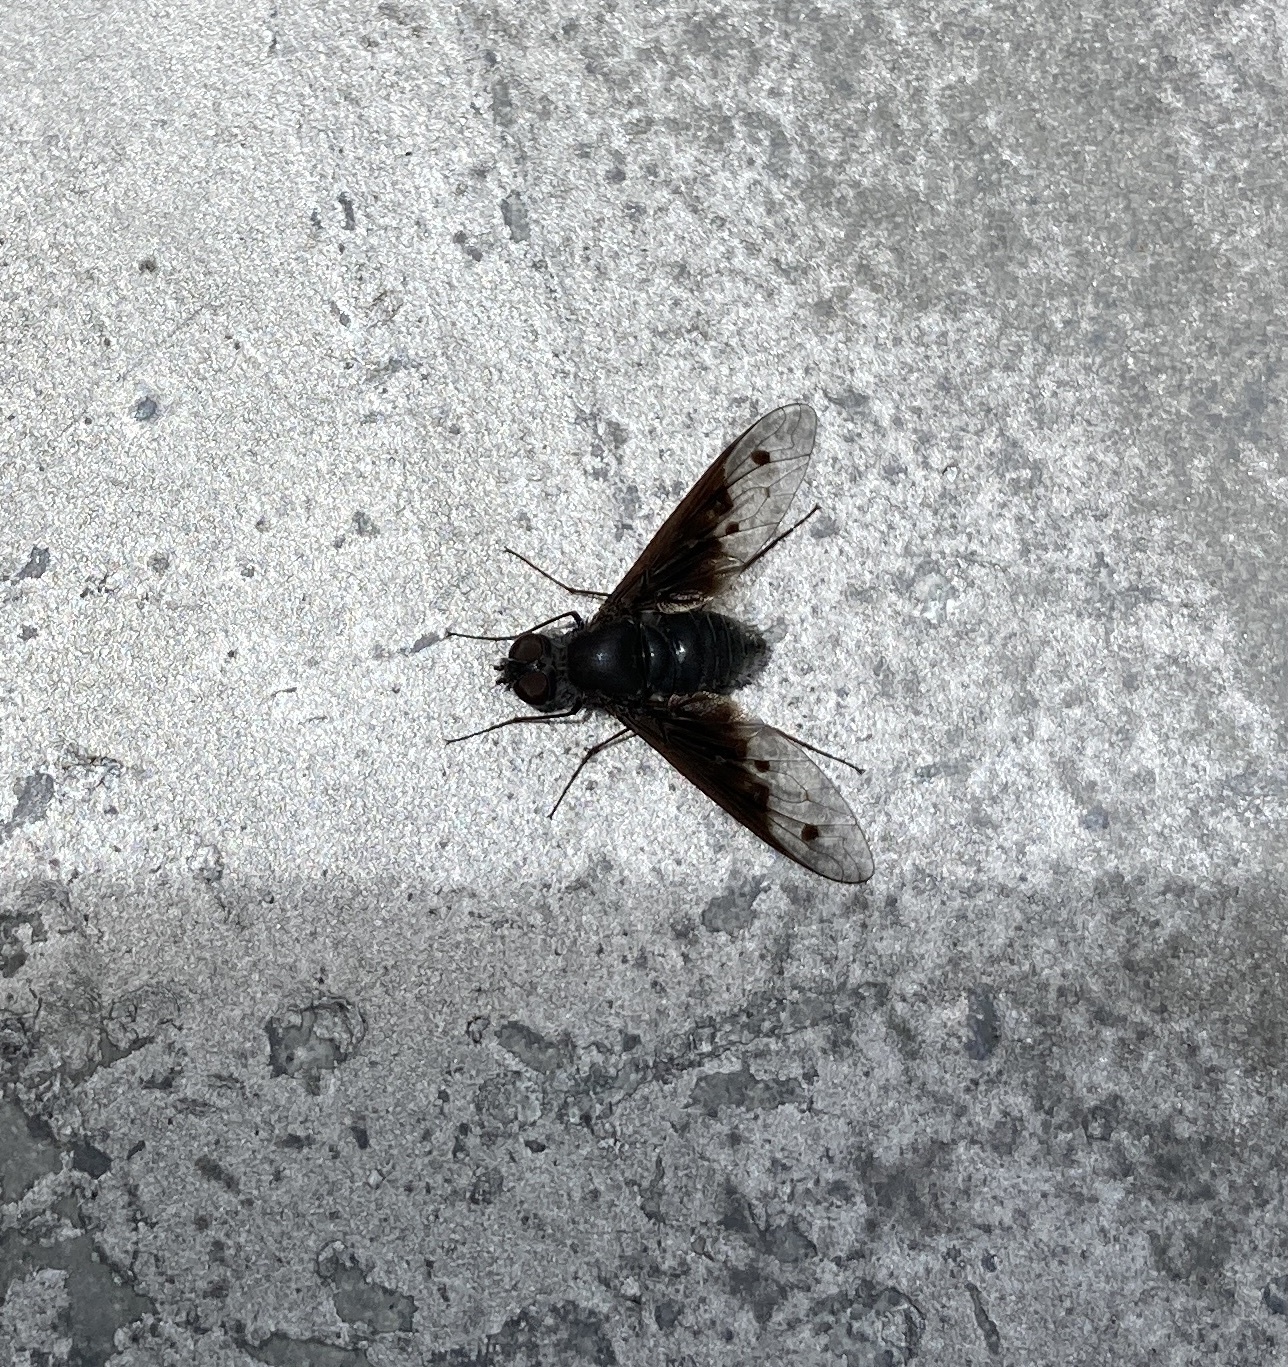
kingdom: Animalia
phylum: Arthropoda
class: Insecta
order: Diptera
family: Bombyliidae
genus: Anthrax
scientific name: Anthrax incomptus
